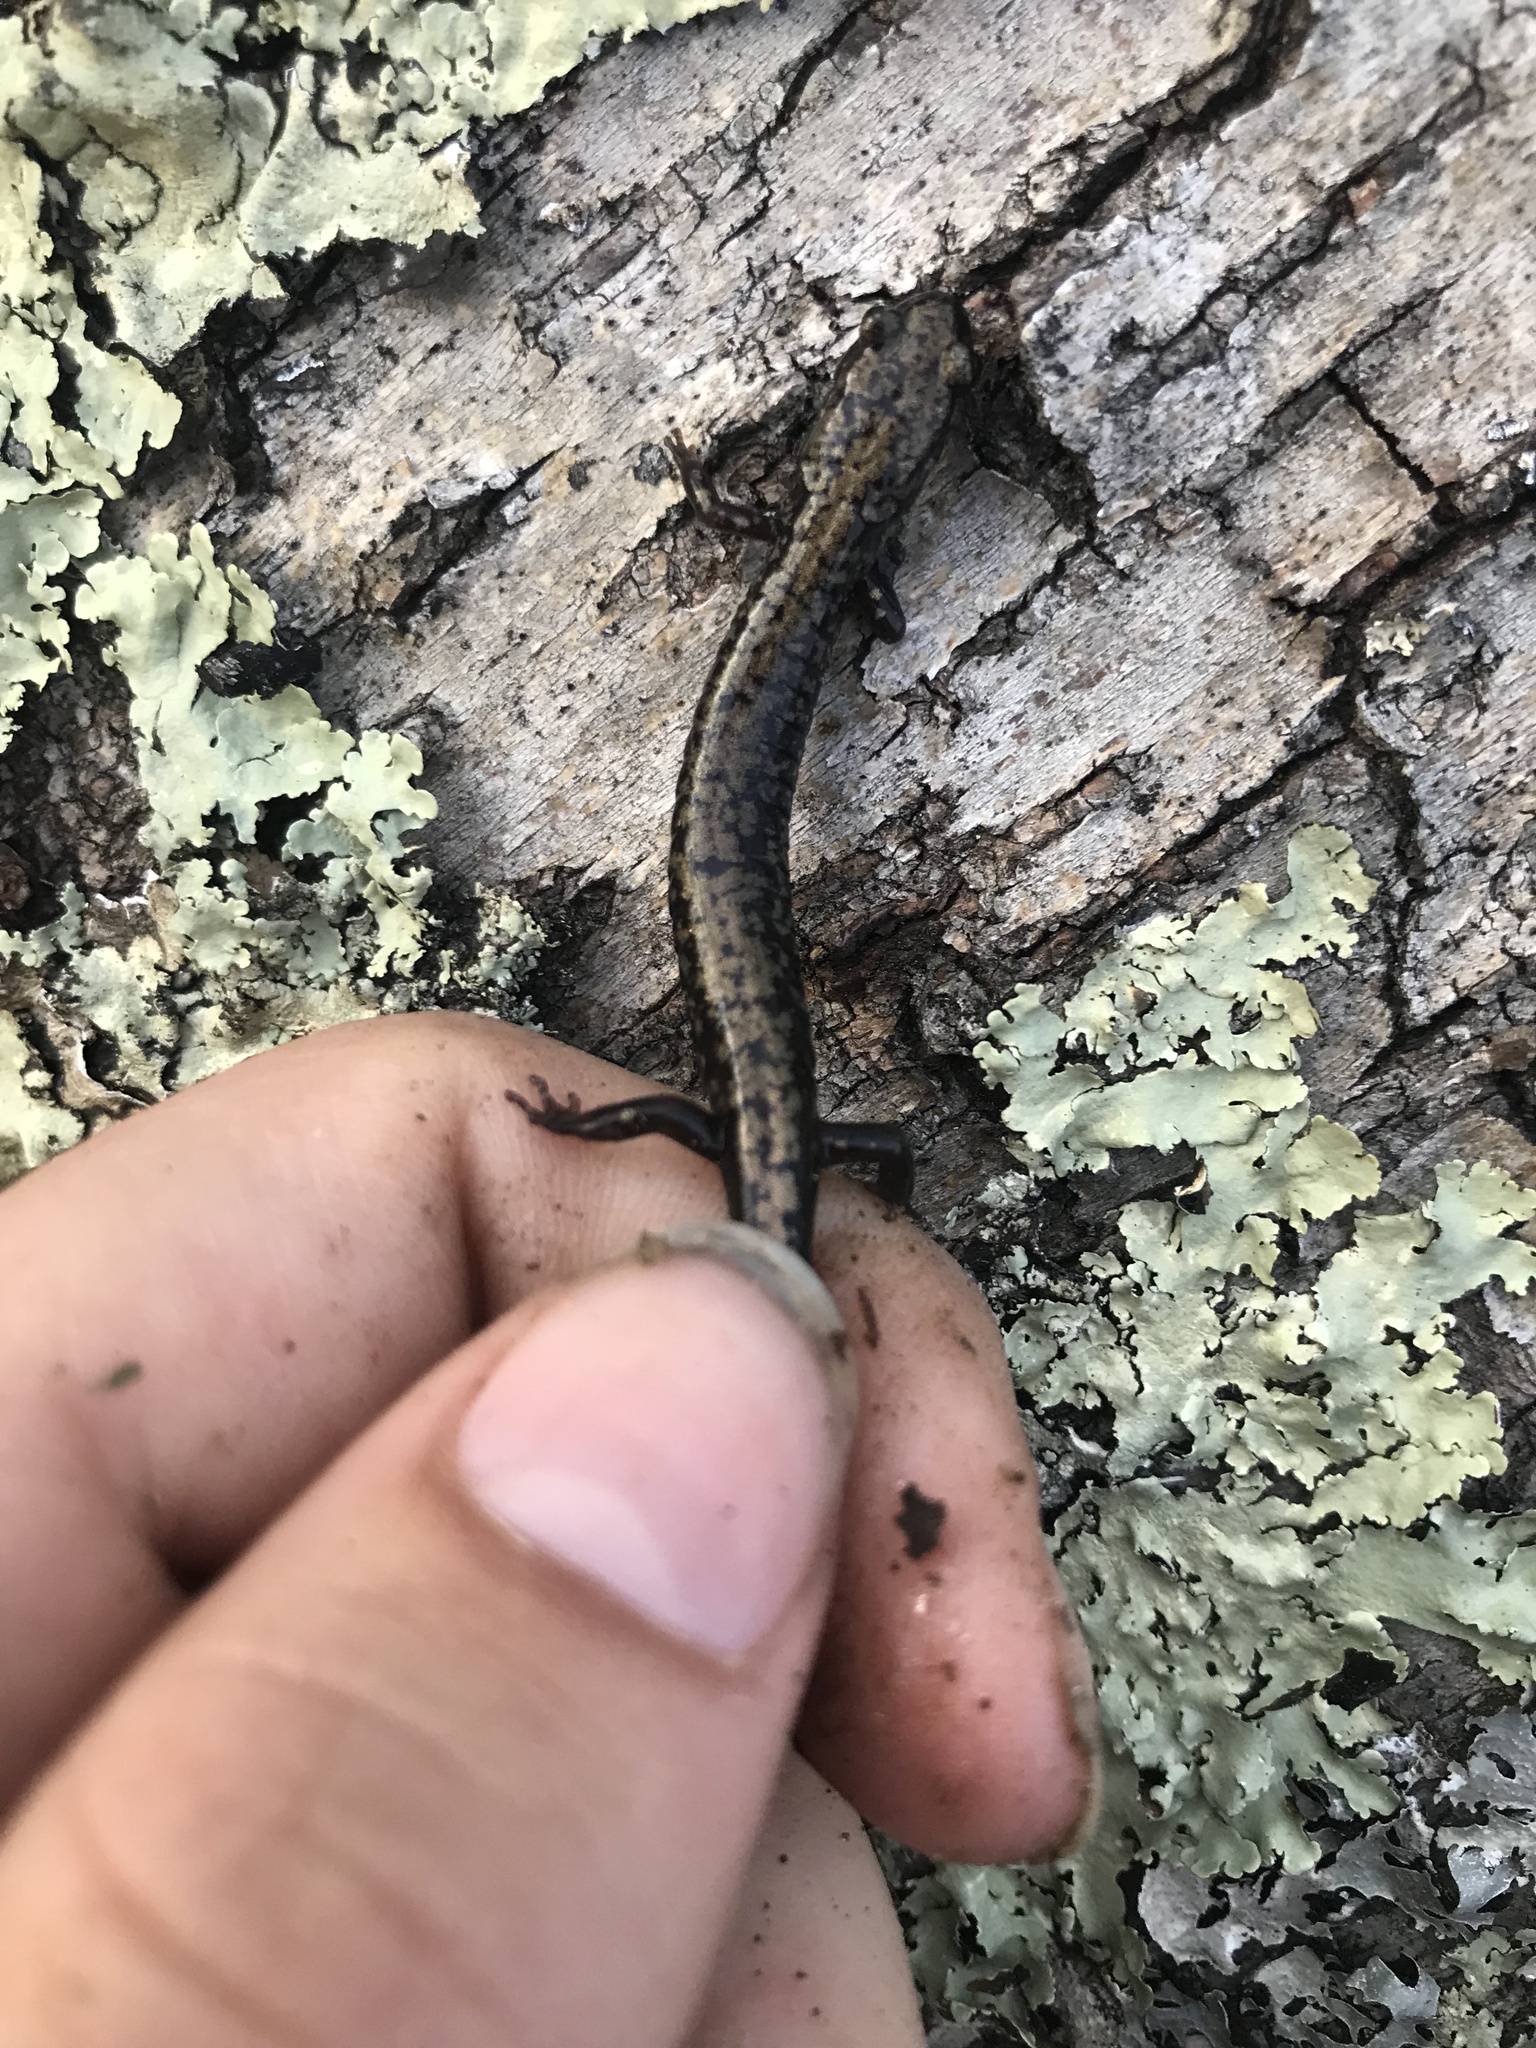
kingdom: Animalia
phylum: Chordata
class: Amphibia
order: Caudata
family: Plethodontidae
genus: Plethodon
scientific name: Plethodon hubrichti
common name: Peaks of otter salamander
